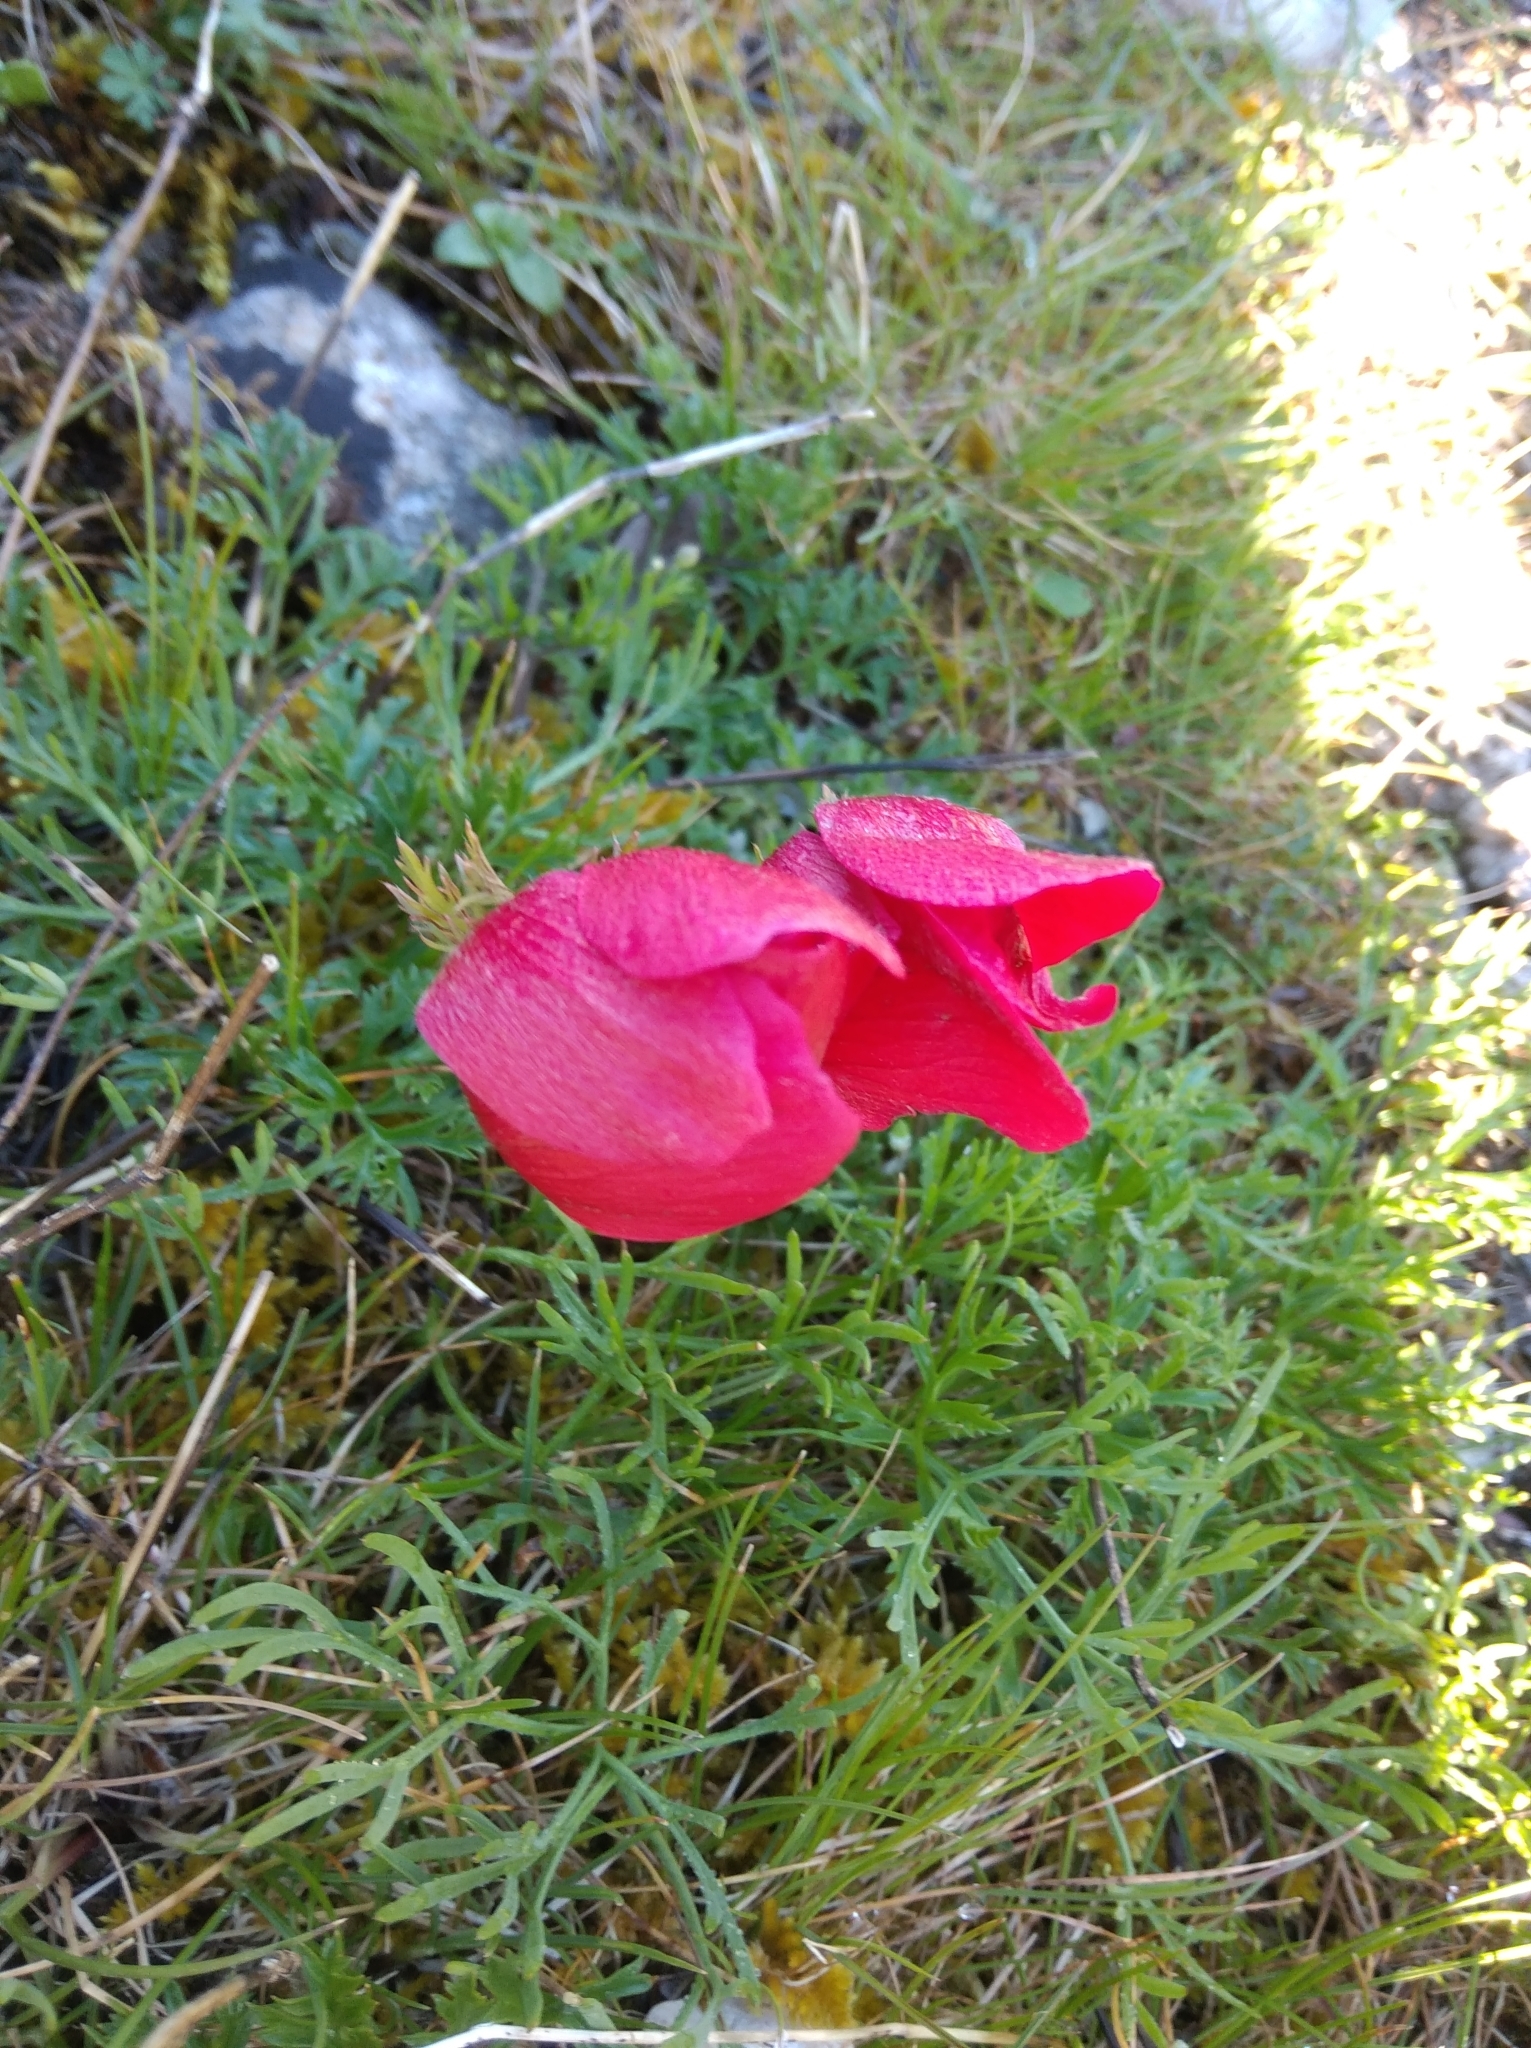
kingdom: Plantae
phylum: Tracheophyta
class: Magnoliopsida
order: Ranunculales
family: Ranunculaceae
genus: Anemone
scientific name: Anemone coronaria
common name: Poppy anemone
